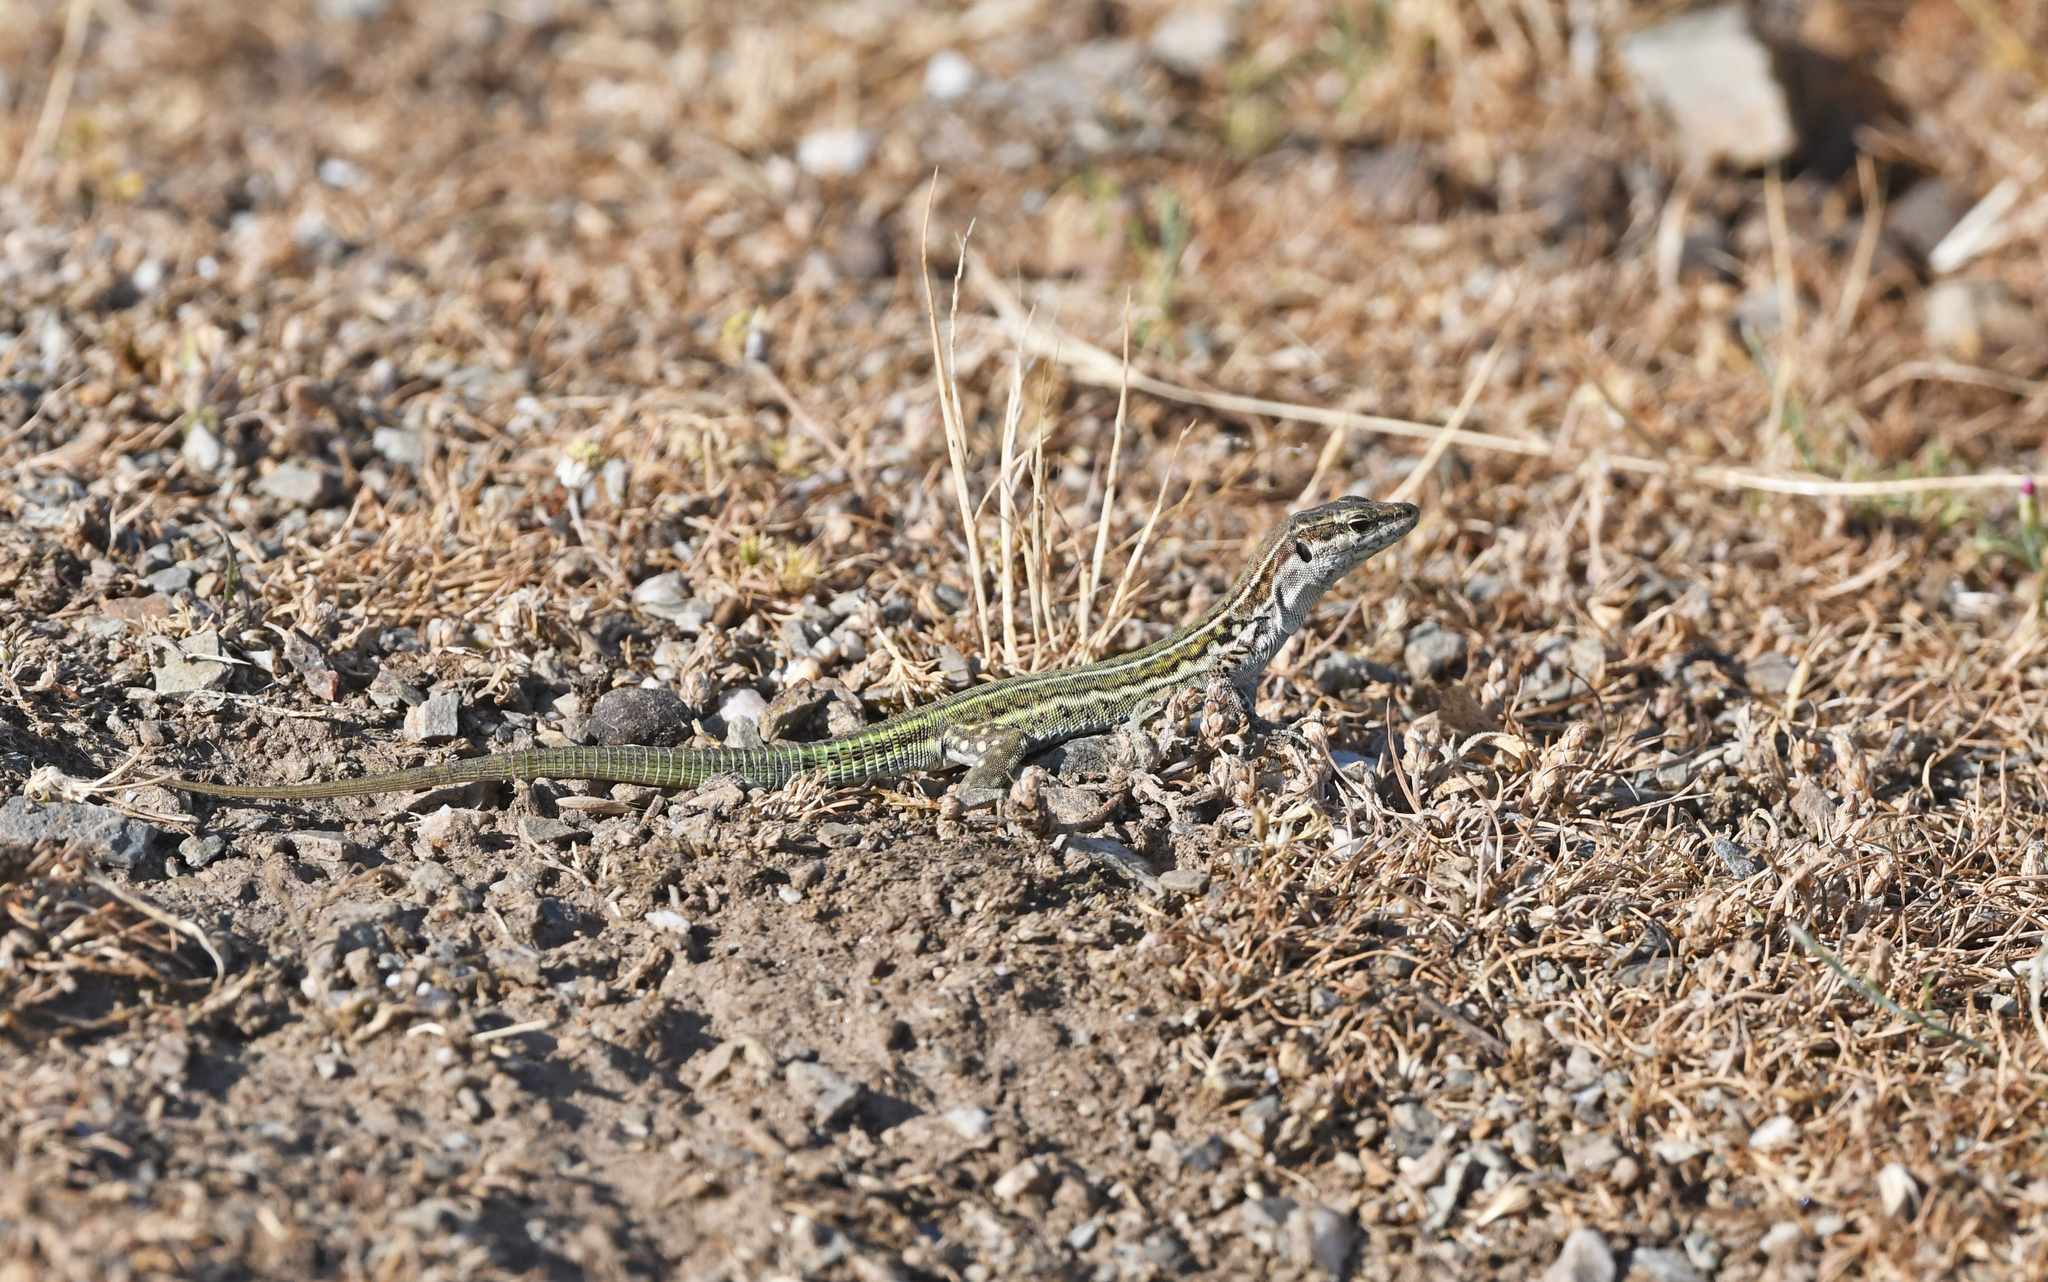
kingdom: Animalia
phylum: Chordata
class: Squamata
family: Lacertidae
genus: Podarcis
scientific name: Podarcis tiliguerta
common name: Tyrrhenian wall lizard
